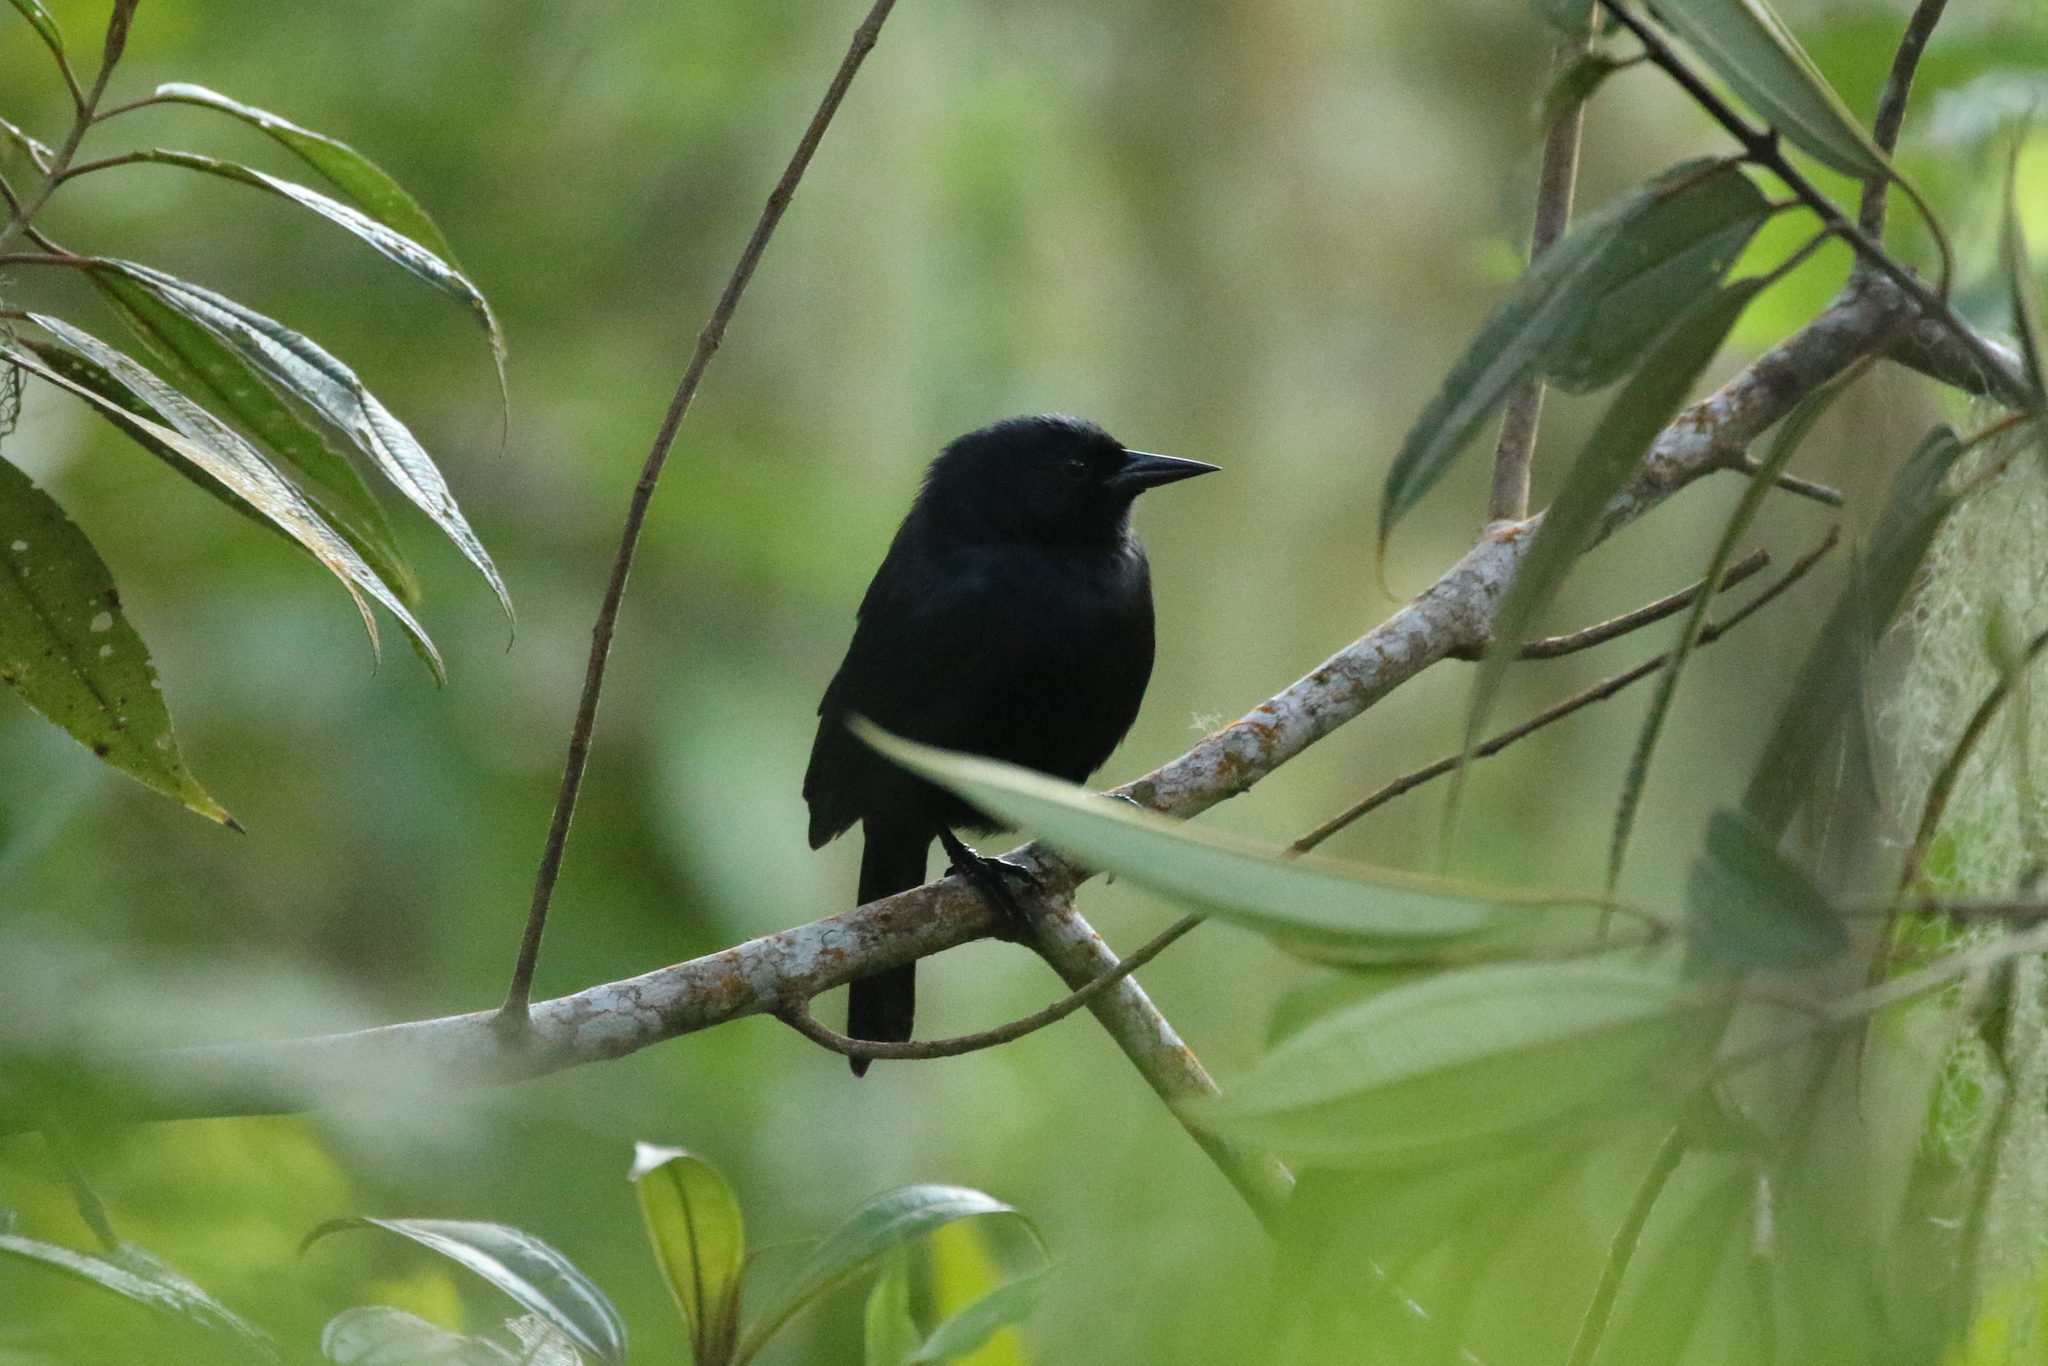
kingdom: Animalia
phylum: Chordata
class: Aves
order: Passeriformes
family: Icteridae
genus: Nesopsar
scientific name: Nesopsar nigerrimus
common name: Jamaican blackbird
